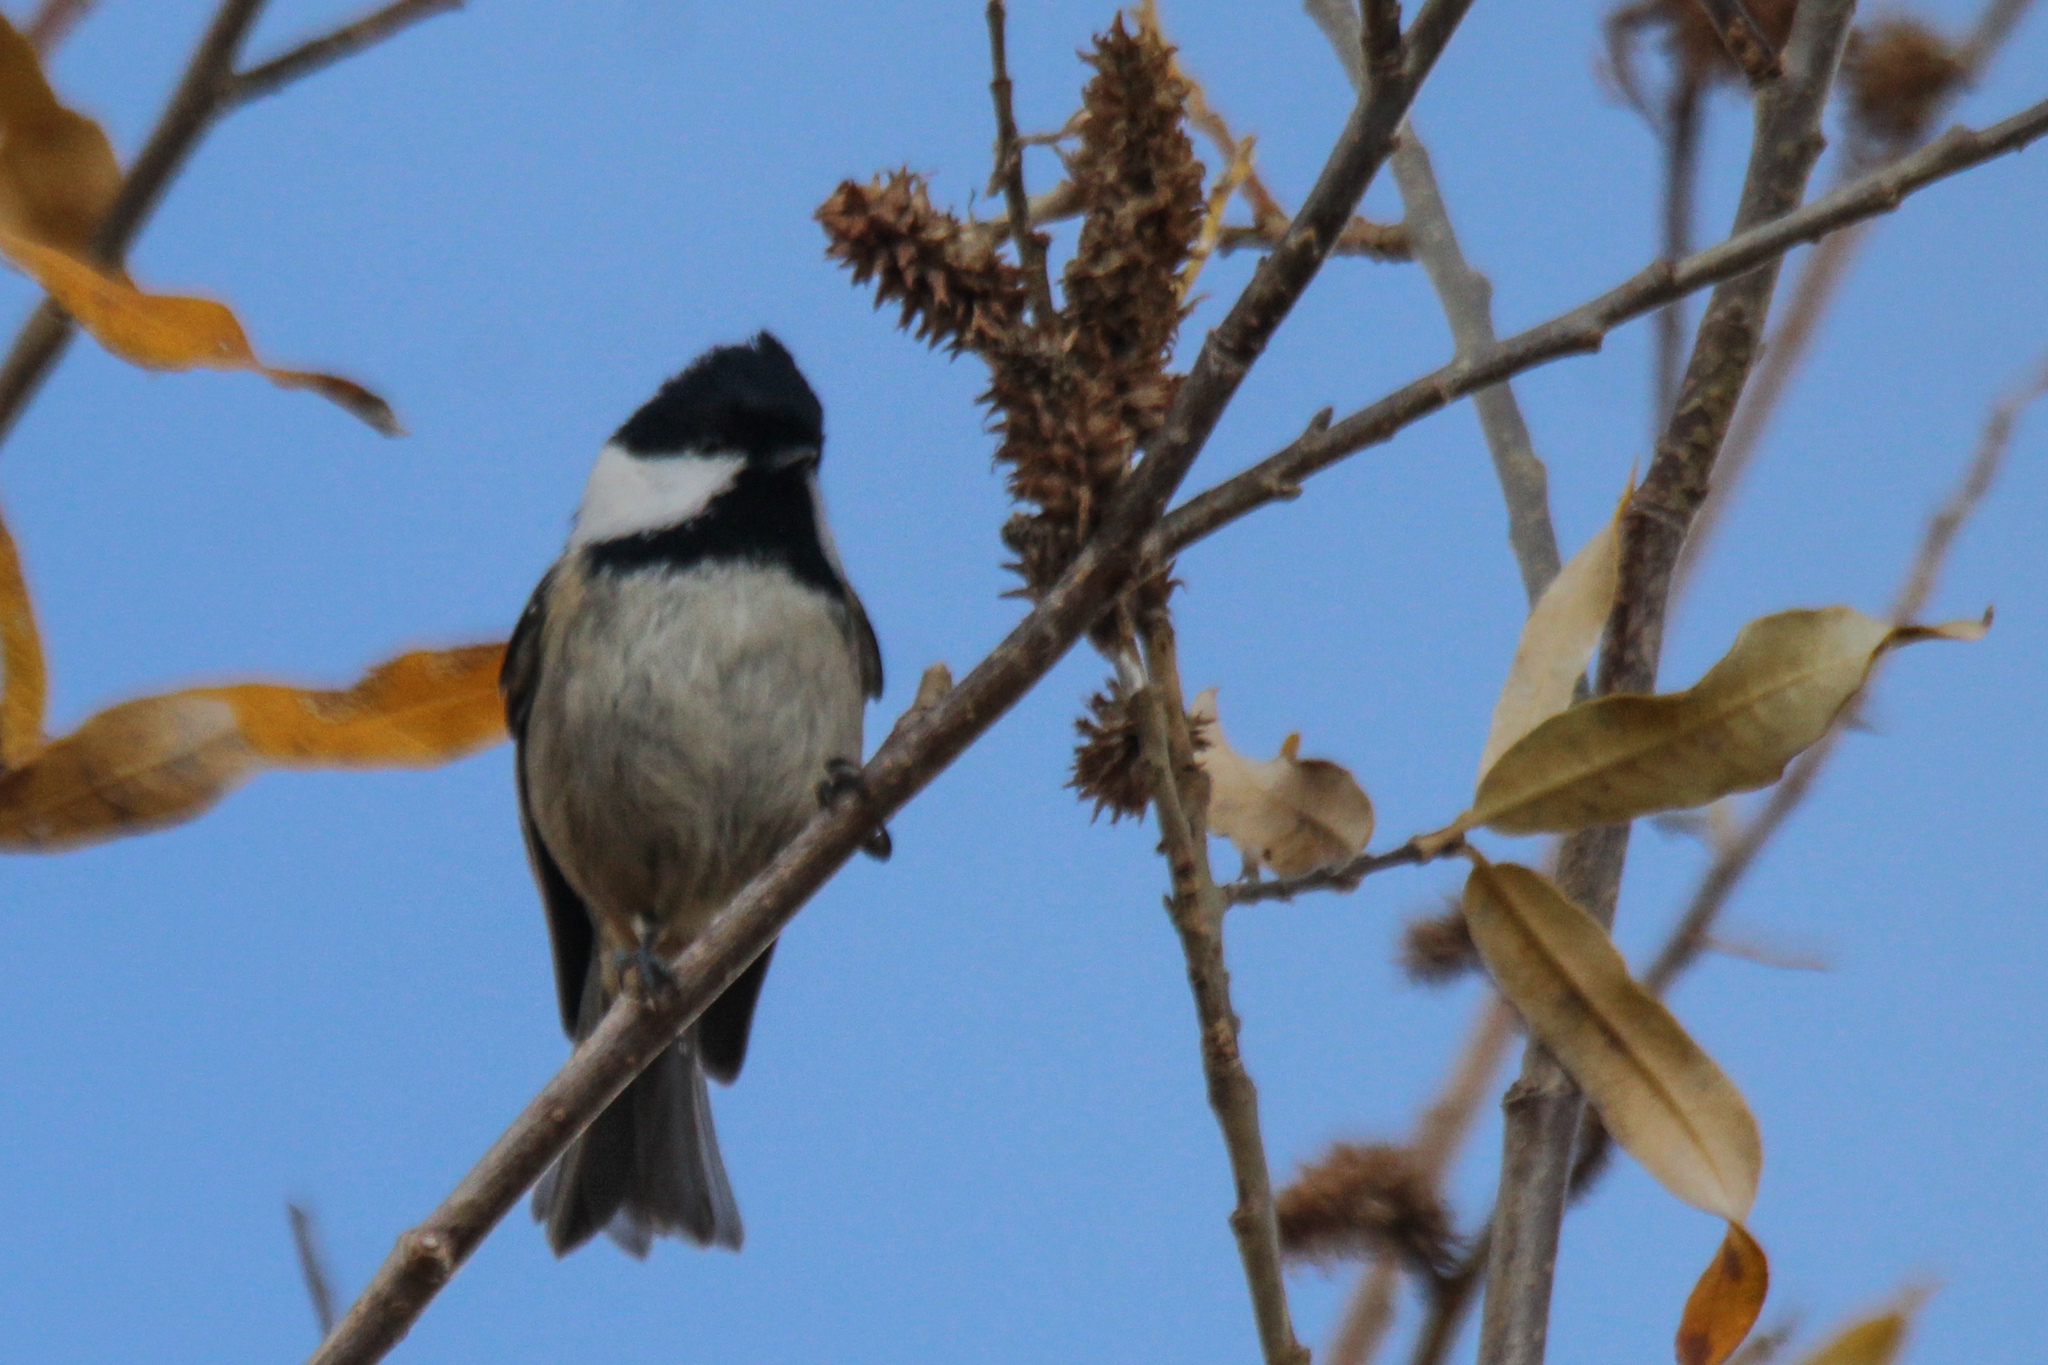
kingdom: Animalia
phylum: Chordata
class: Aves
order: Passeriformes
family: Paridae
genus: Periparus
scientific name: Periparus ater
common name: Coal tit
